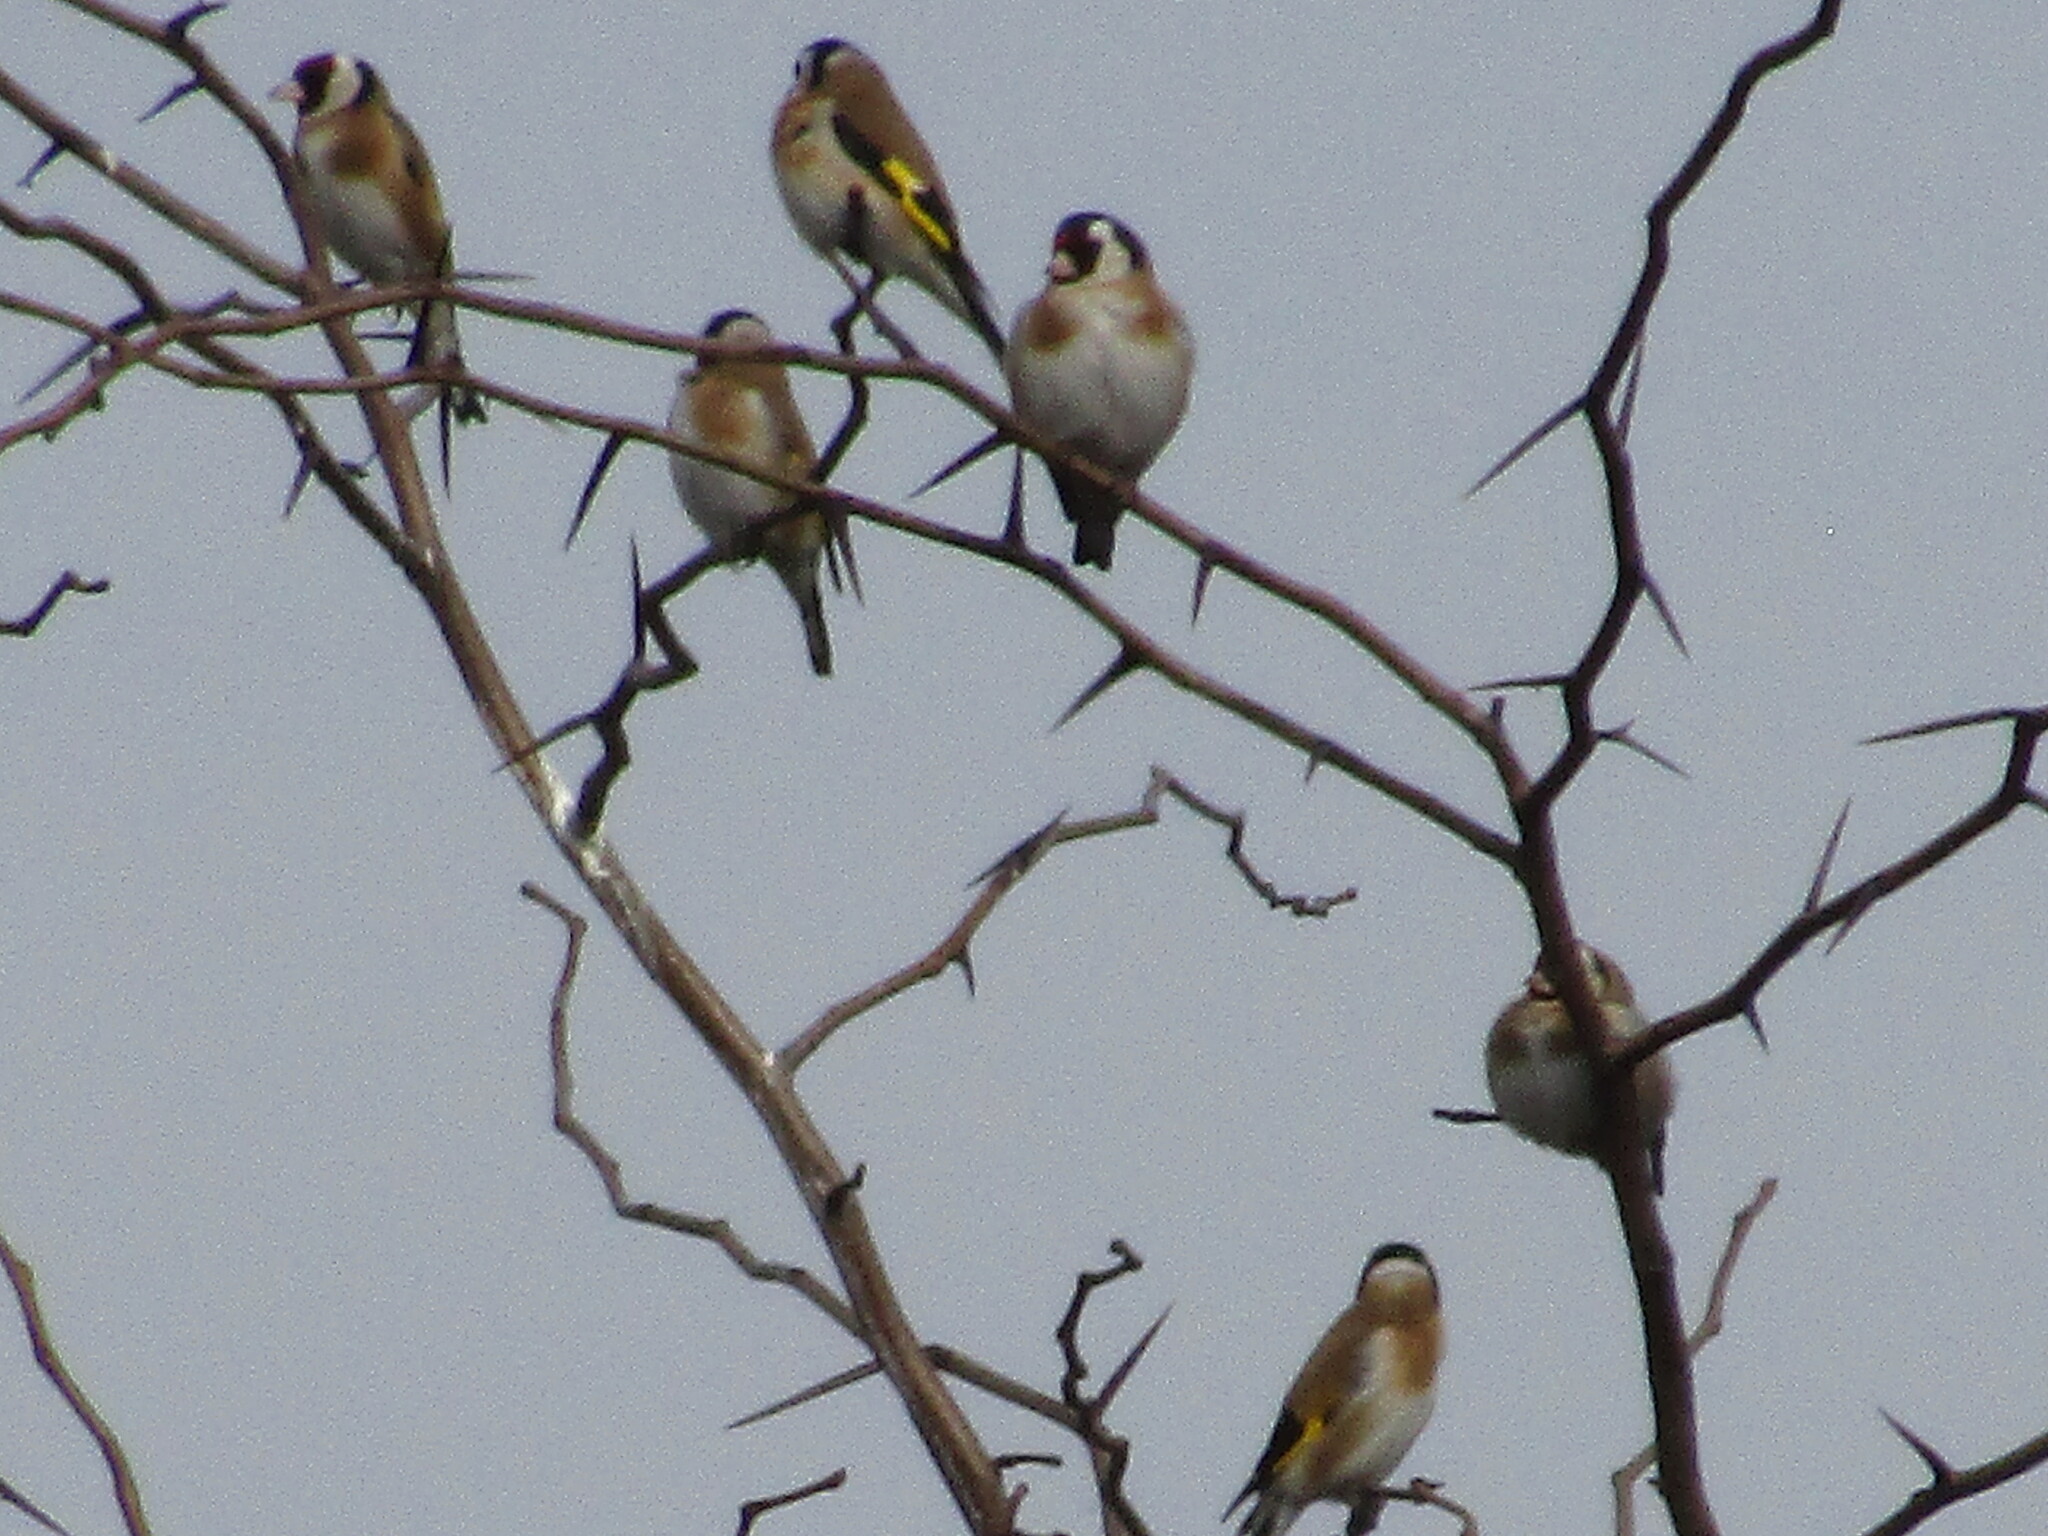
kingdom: Animalia
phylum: Chordata
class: Aves
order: Passeriformes
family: Fringillidae
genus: Carduelis
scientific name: Carduelis carduelis
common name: European goldfinch
